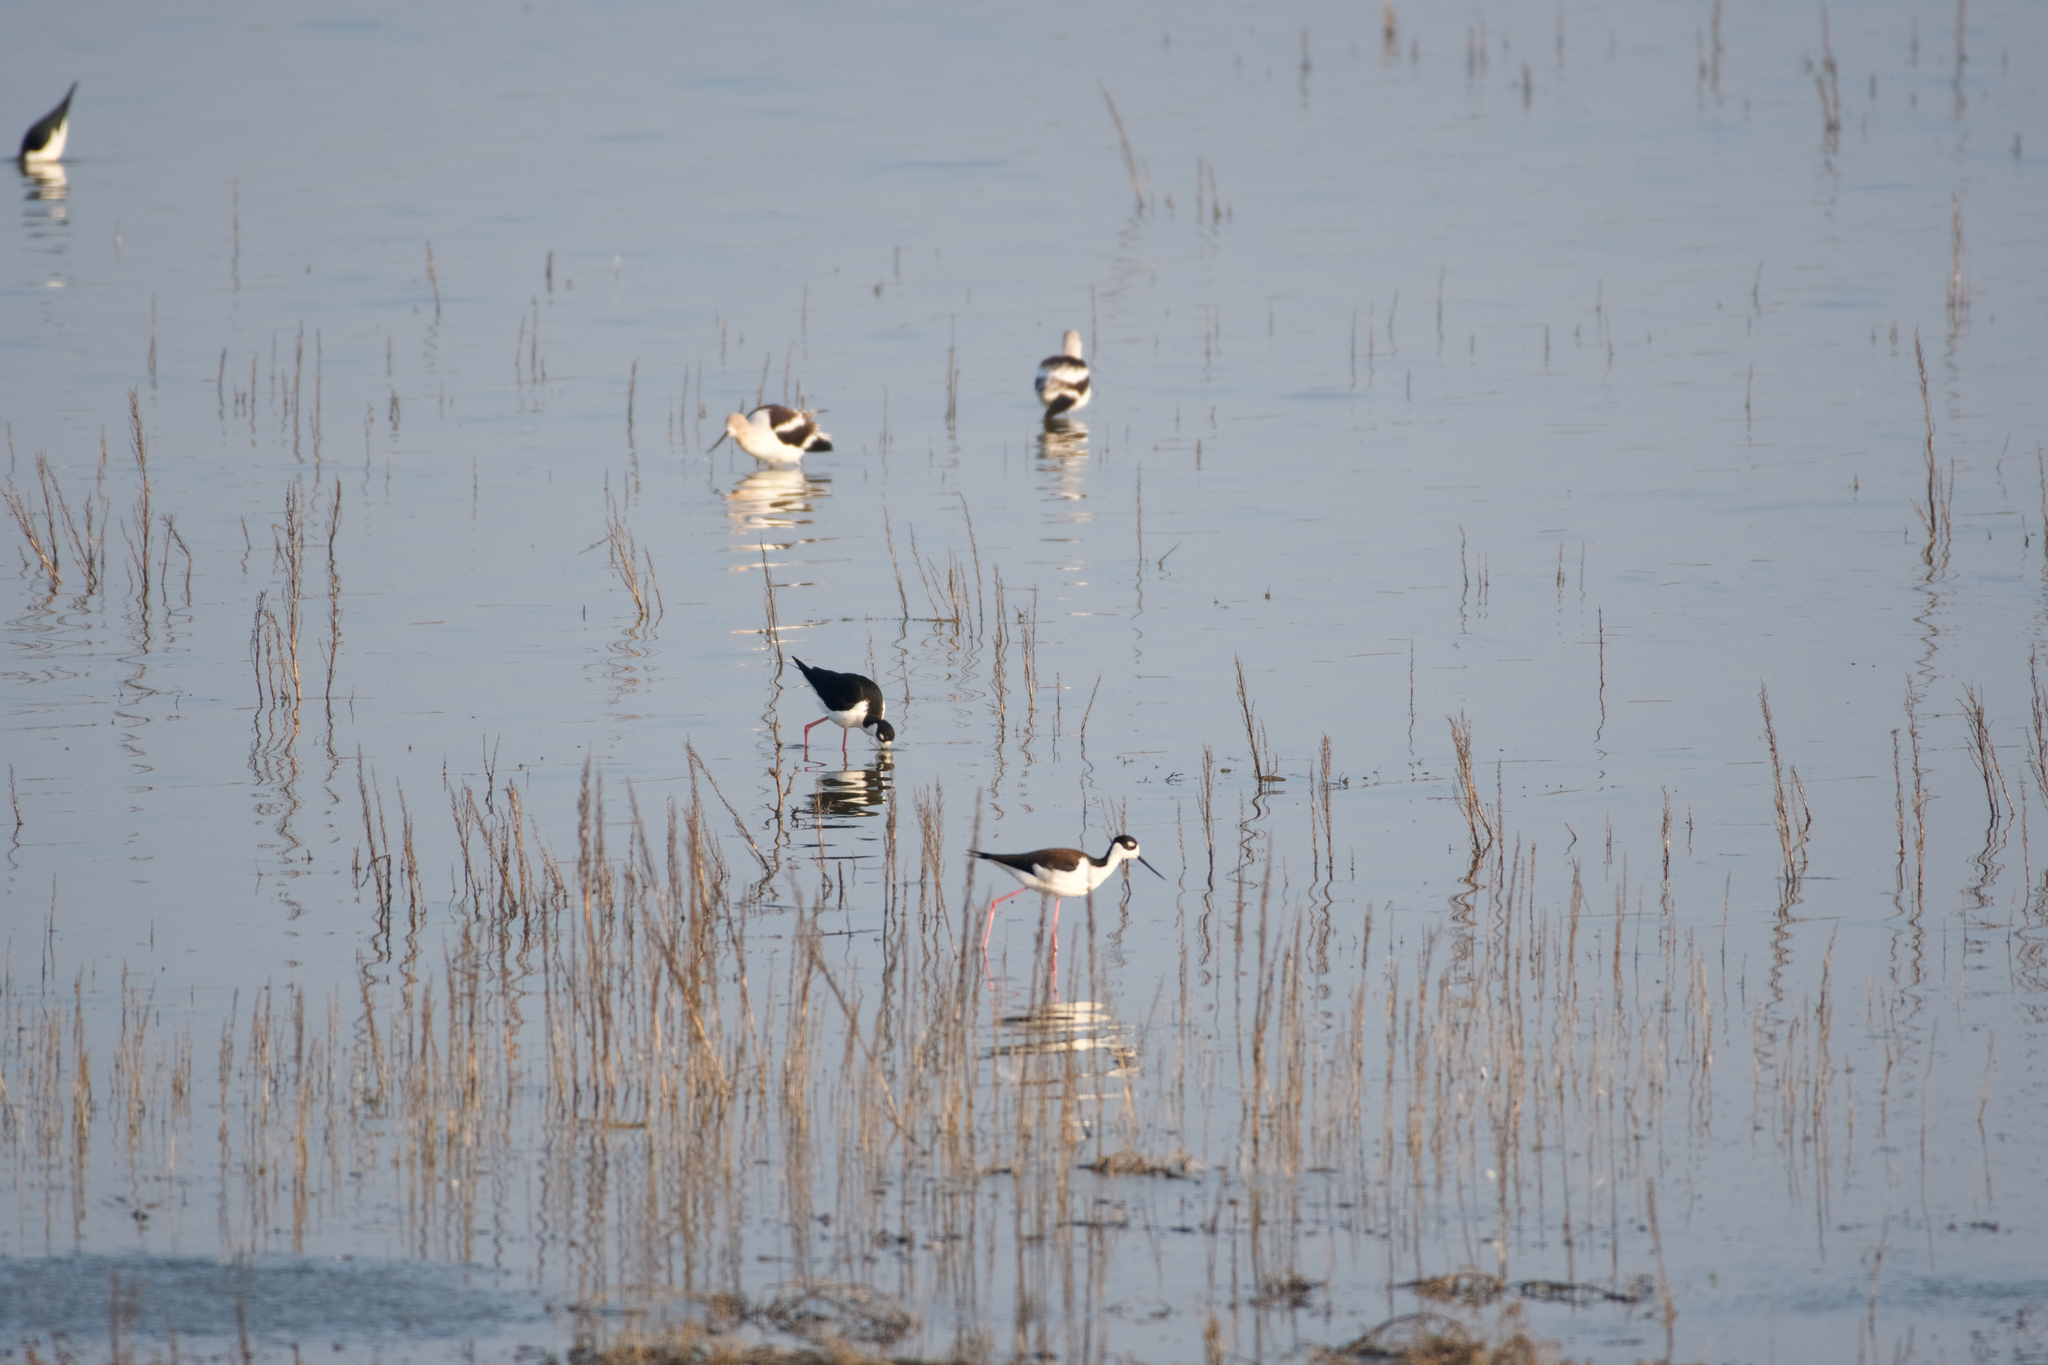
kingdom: Animalia
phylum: Chordata
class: Aves
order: Charadriiformes
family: Recurvirostridae
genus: Himantopus
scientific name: Himantopus mexicanus
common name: Black-necked stilt
